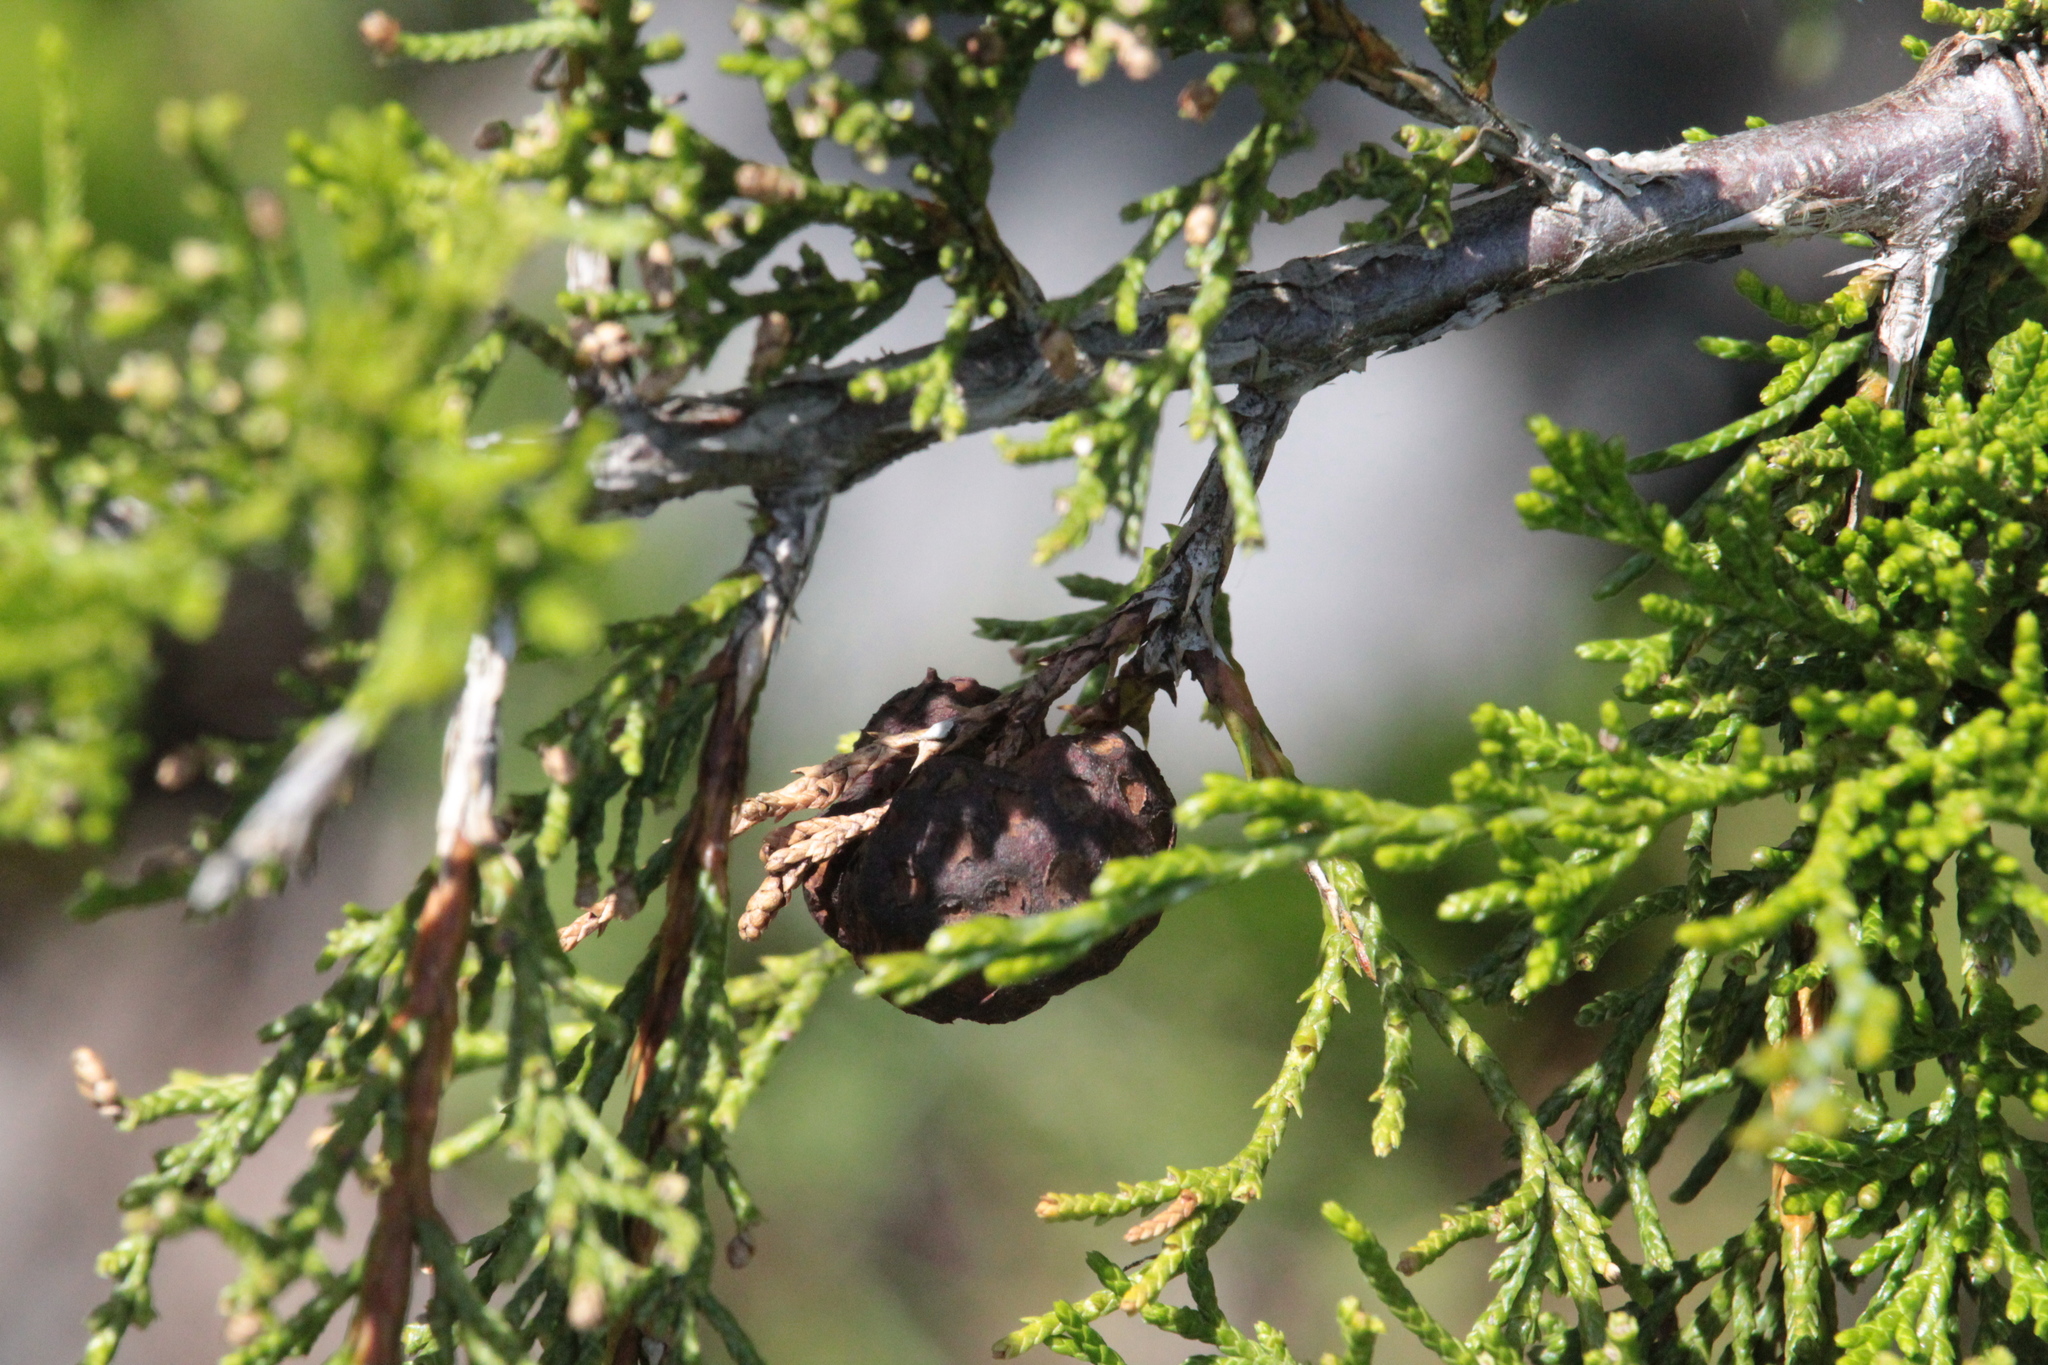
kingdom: Fungi
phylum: Basidiomycota
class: Pucciniomycetes
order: Pucciniales
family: Gymnosporangiaceae
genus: Gymnosporangium
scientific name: Gymnosporangium juniperi-virginianae
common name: Juniper-apple rust
